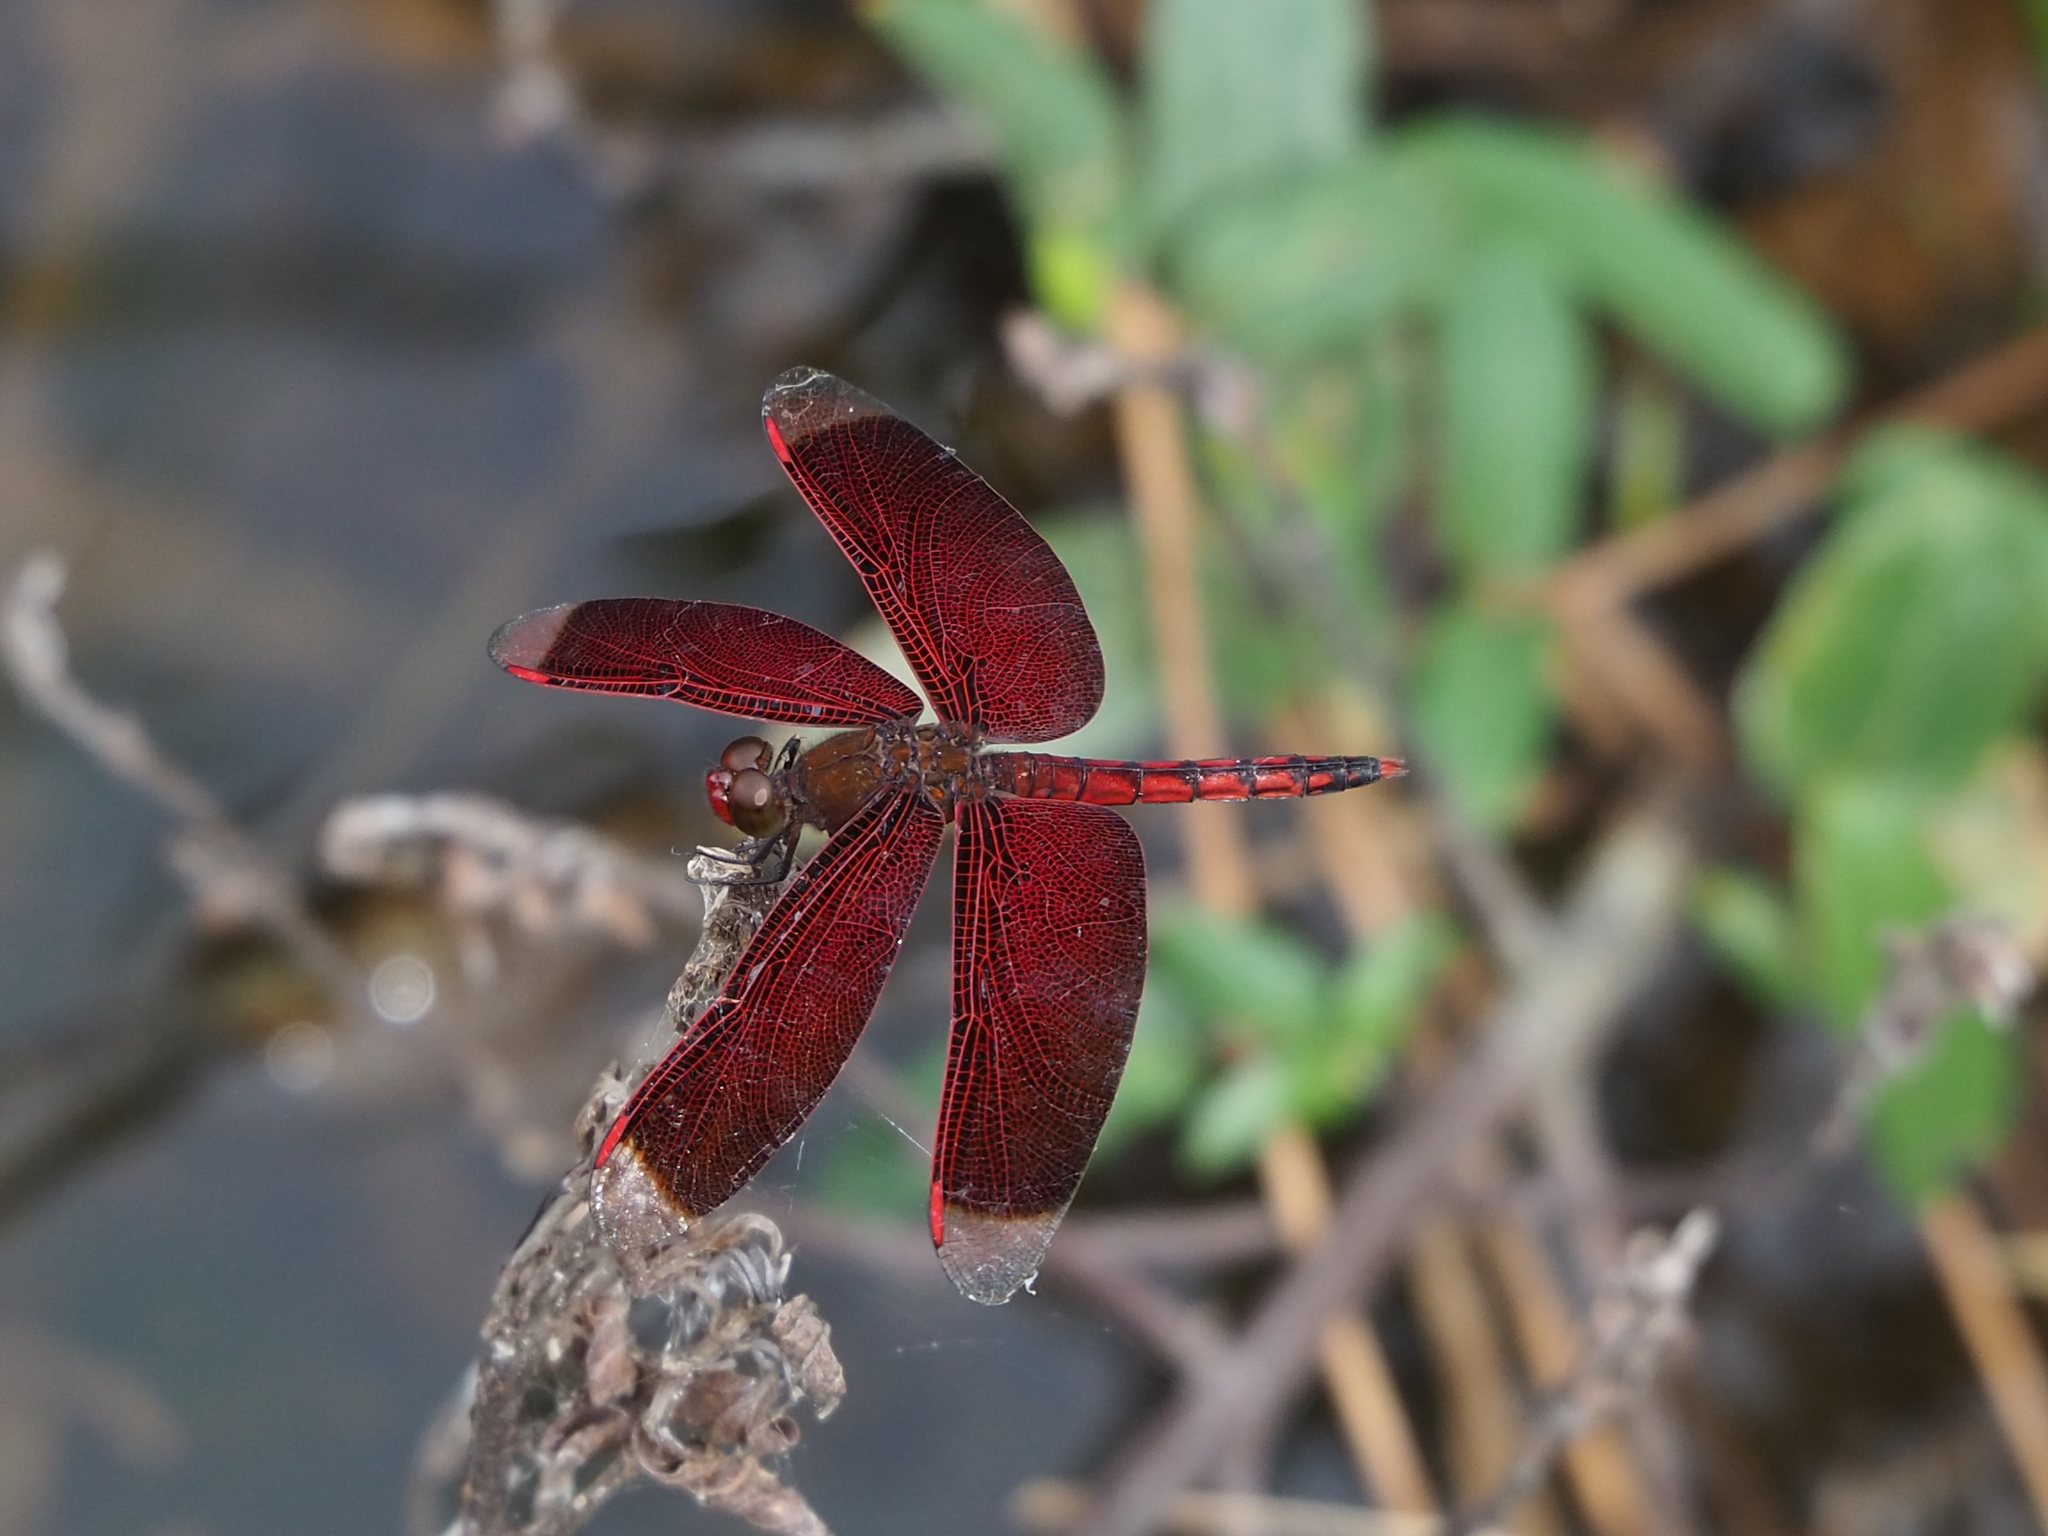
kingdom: Animalia
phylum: Arthropoda
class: Insecta
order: Odonata
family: Libellulidae
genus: Neurothemis
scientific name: Neurothemis taiwanensis
